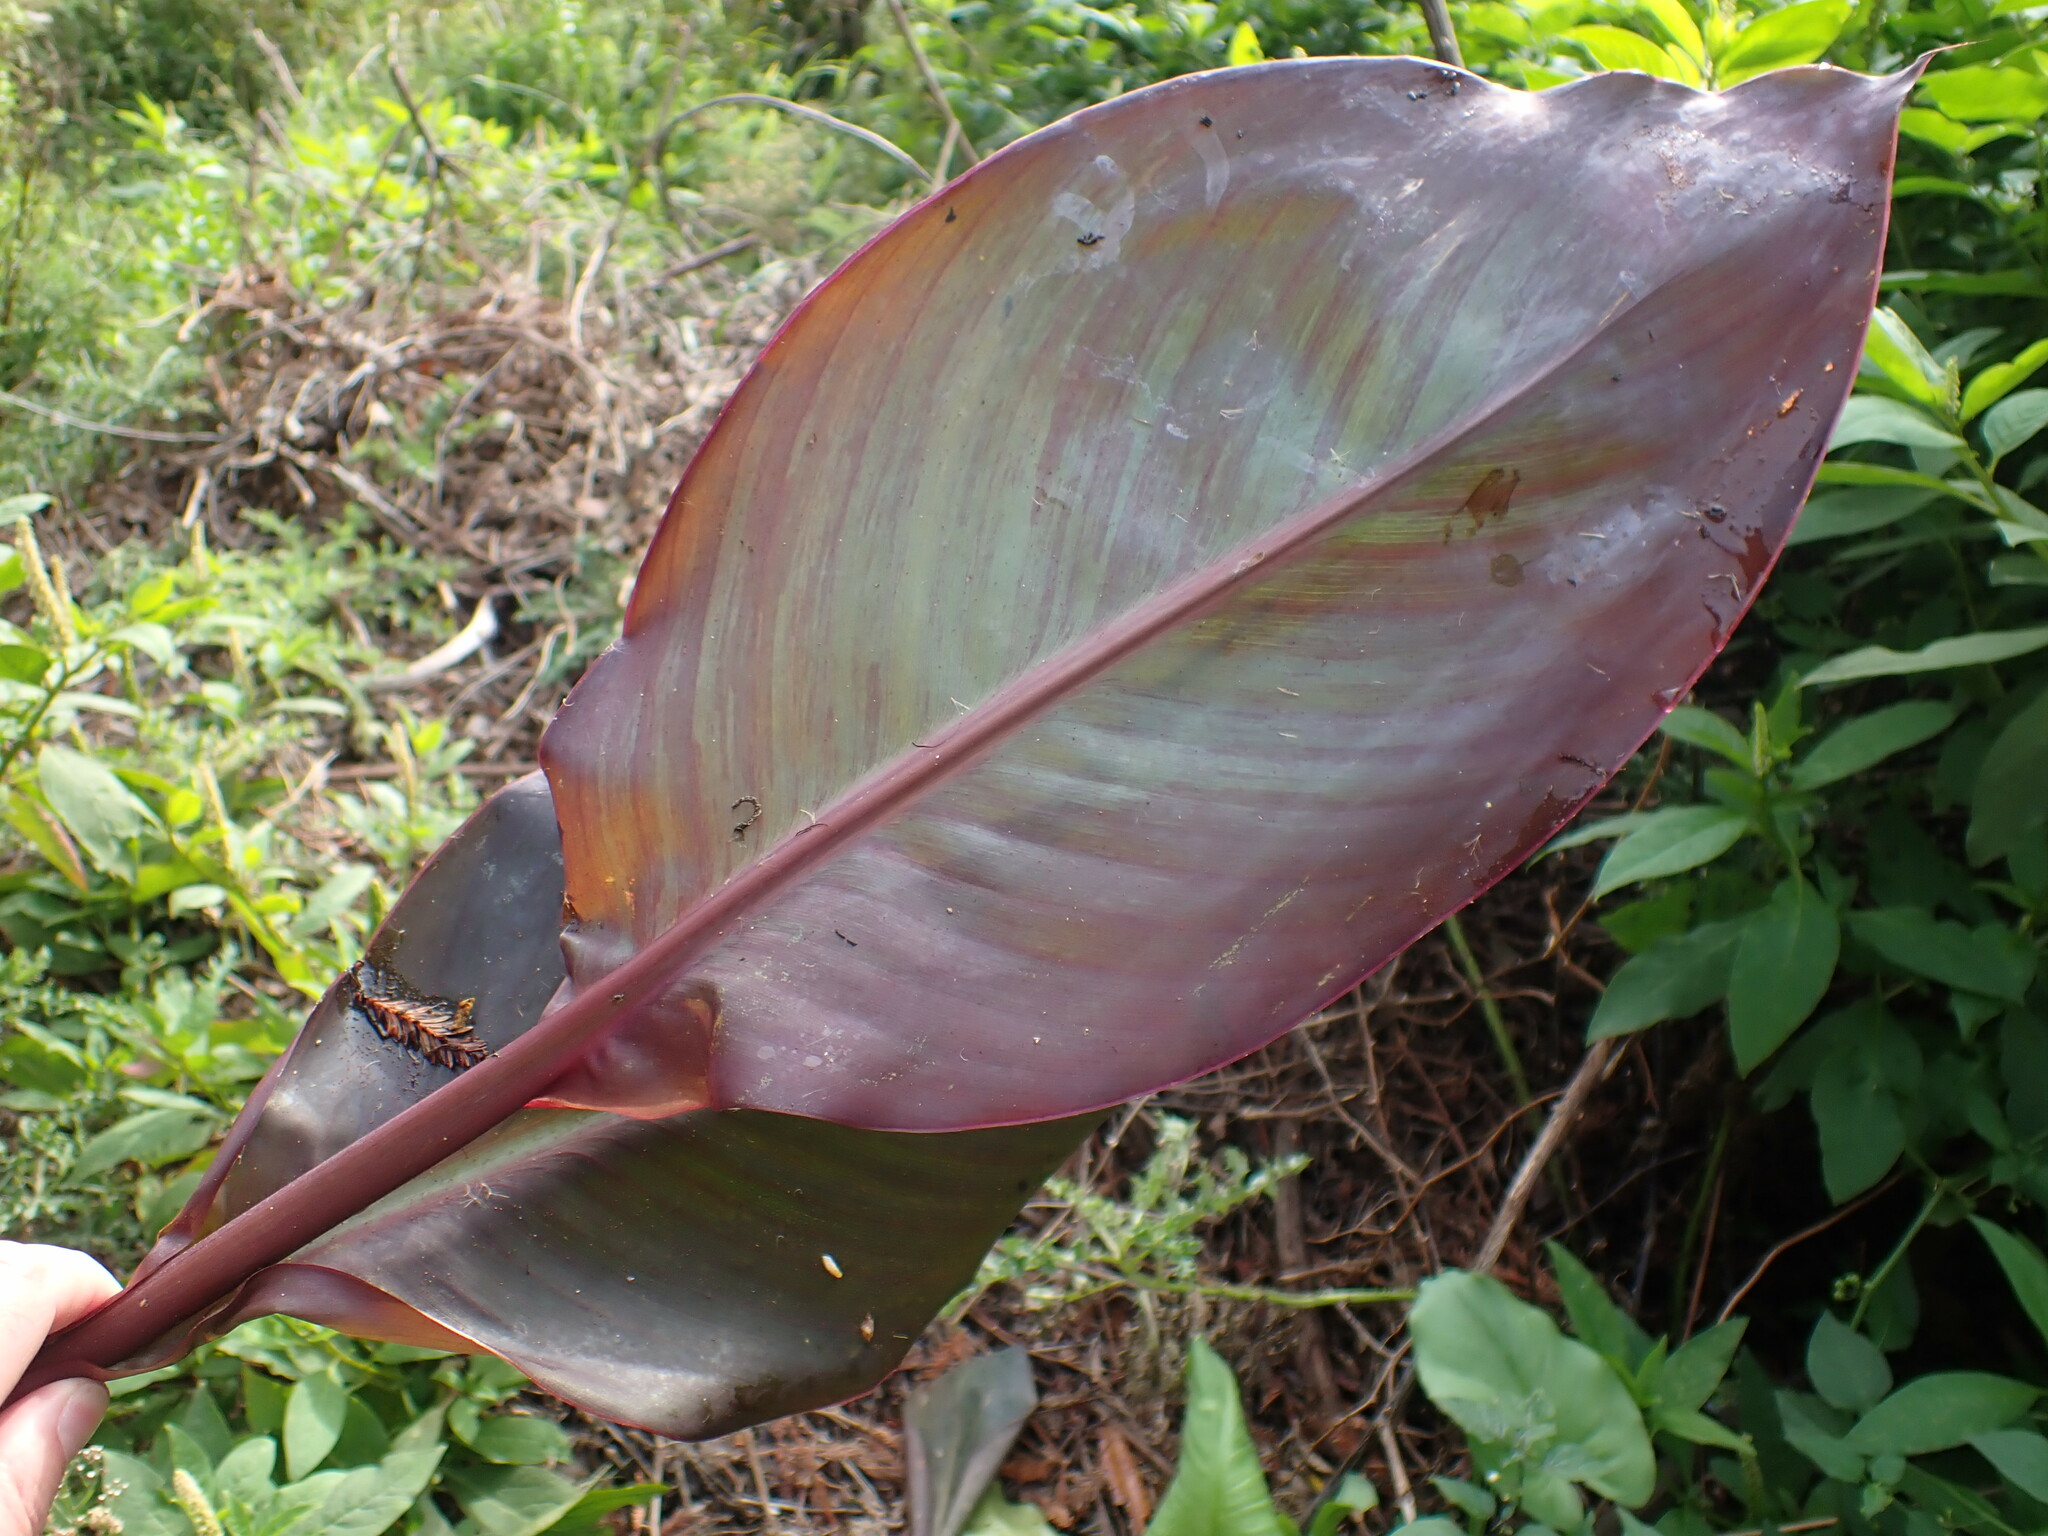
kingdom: Plantae
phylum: Tracheophyta
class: Liliopsida
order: Zingiberales
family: Cannaceae
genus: Canna
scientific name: Canna hybrida
